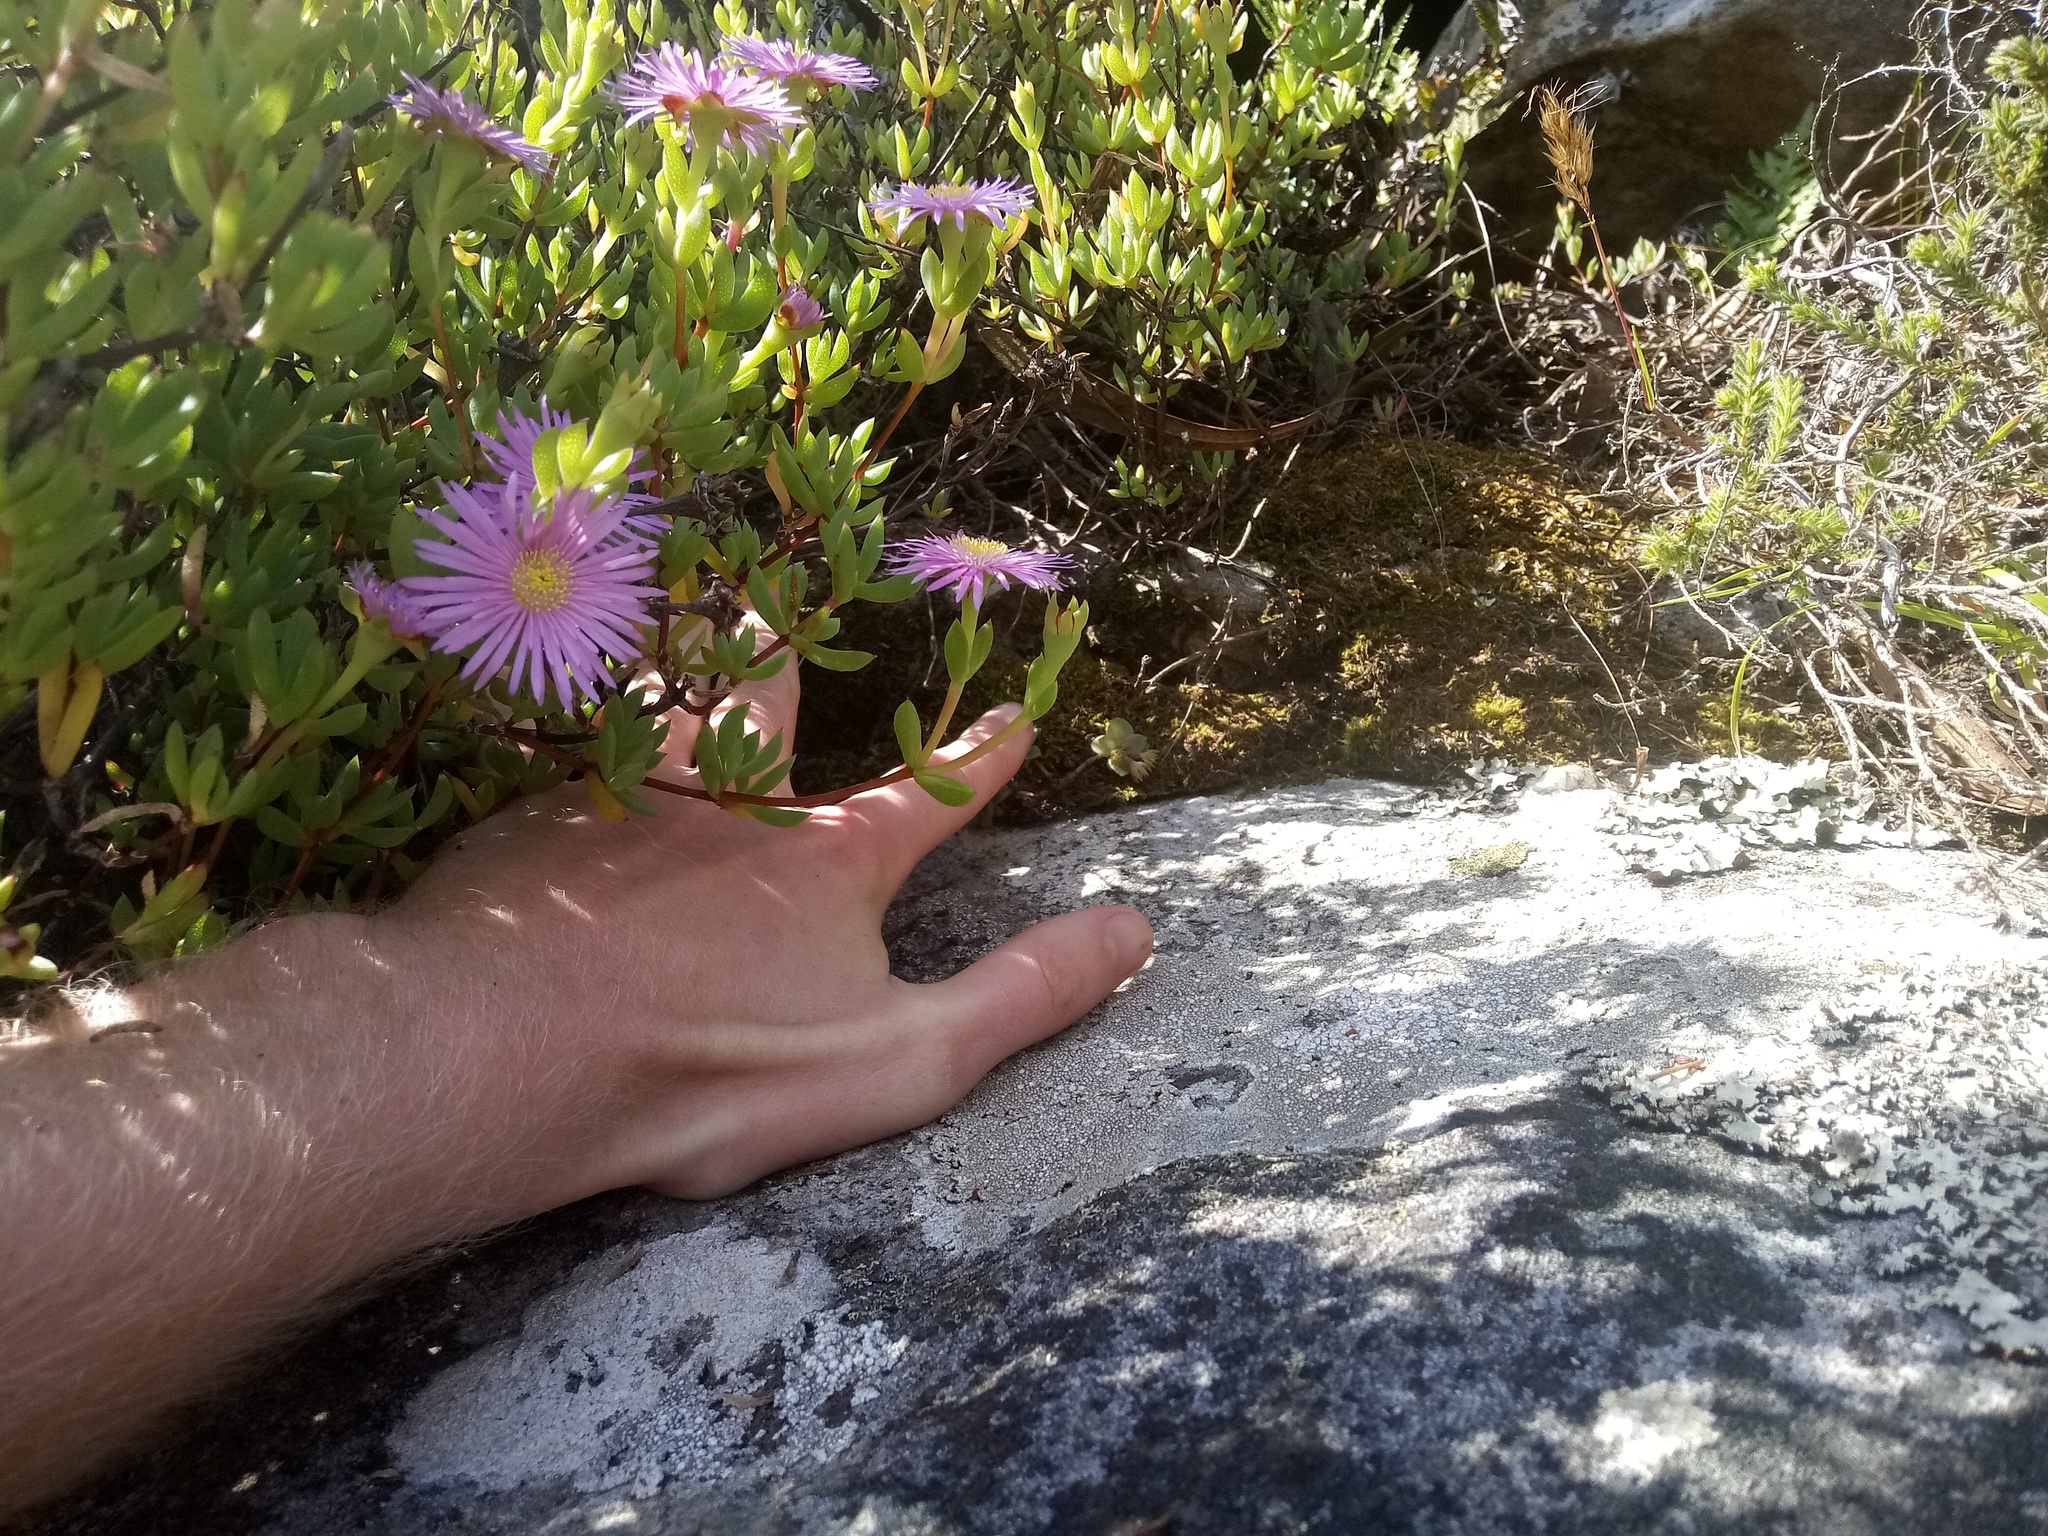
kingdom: Plantae
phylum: Tracheophyta
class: Magnoliopsida
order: Saxifragales
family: Crassulaceae
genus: Crassula
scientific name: Crassula pellucida
